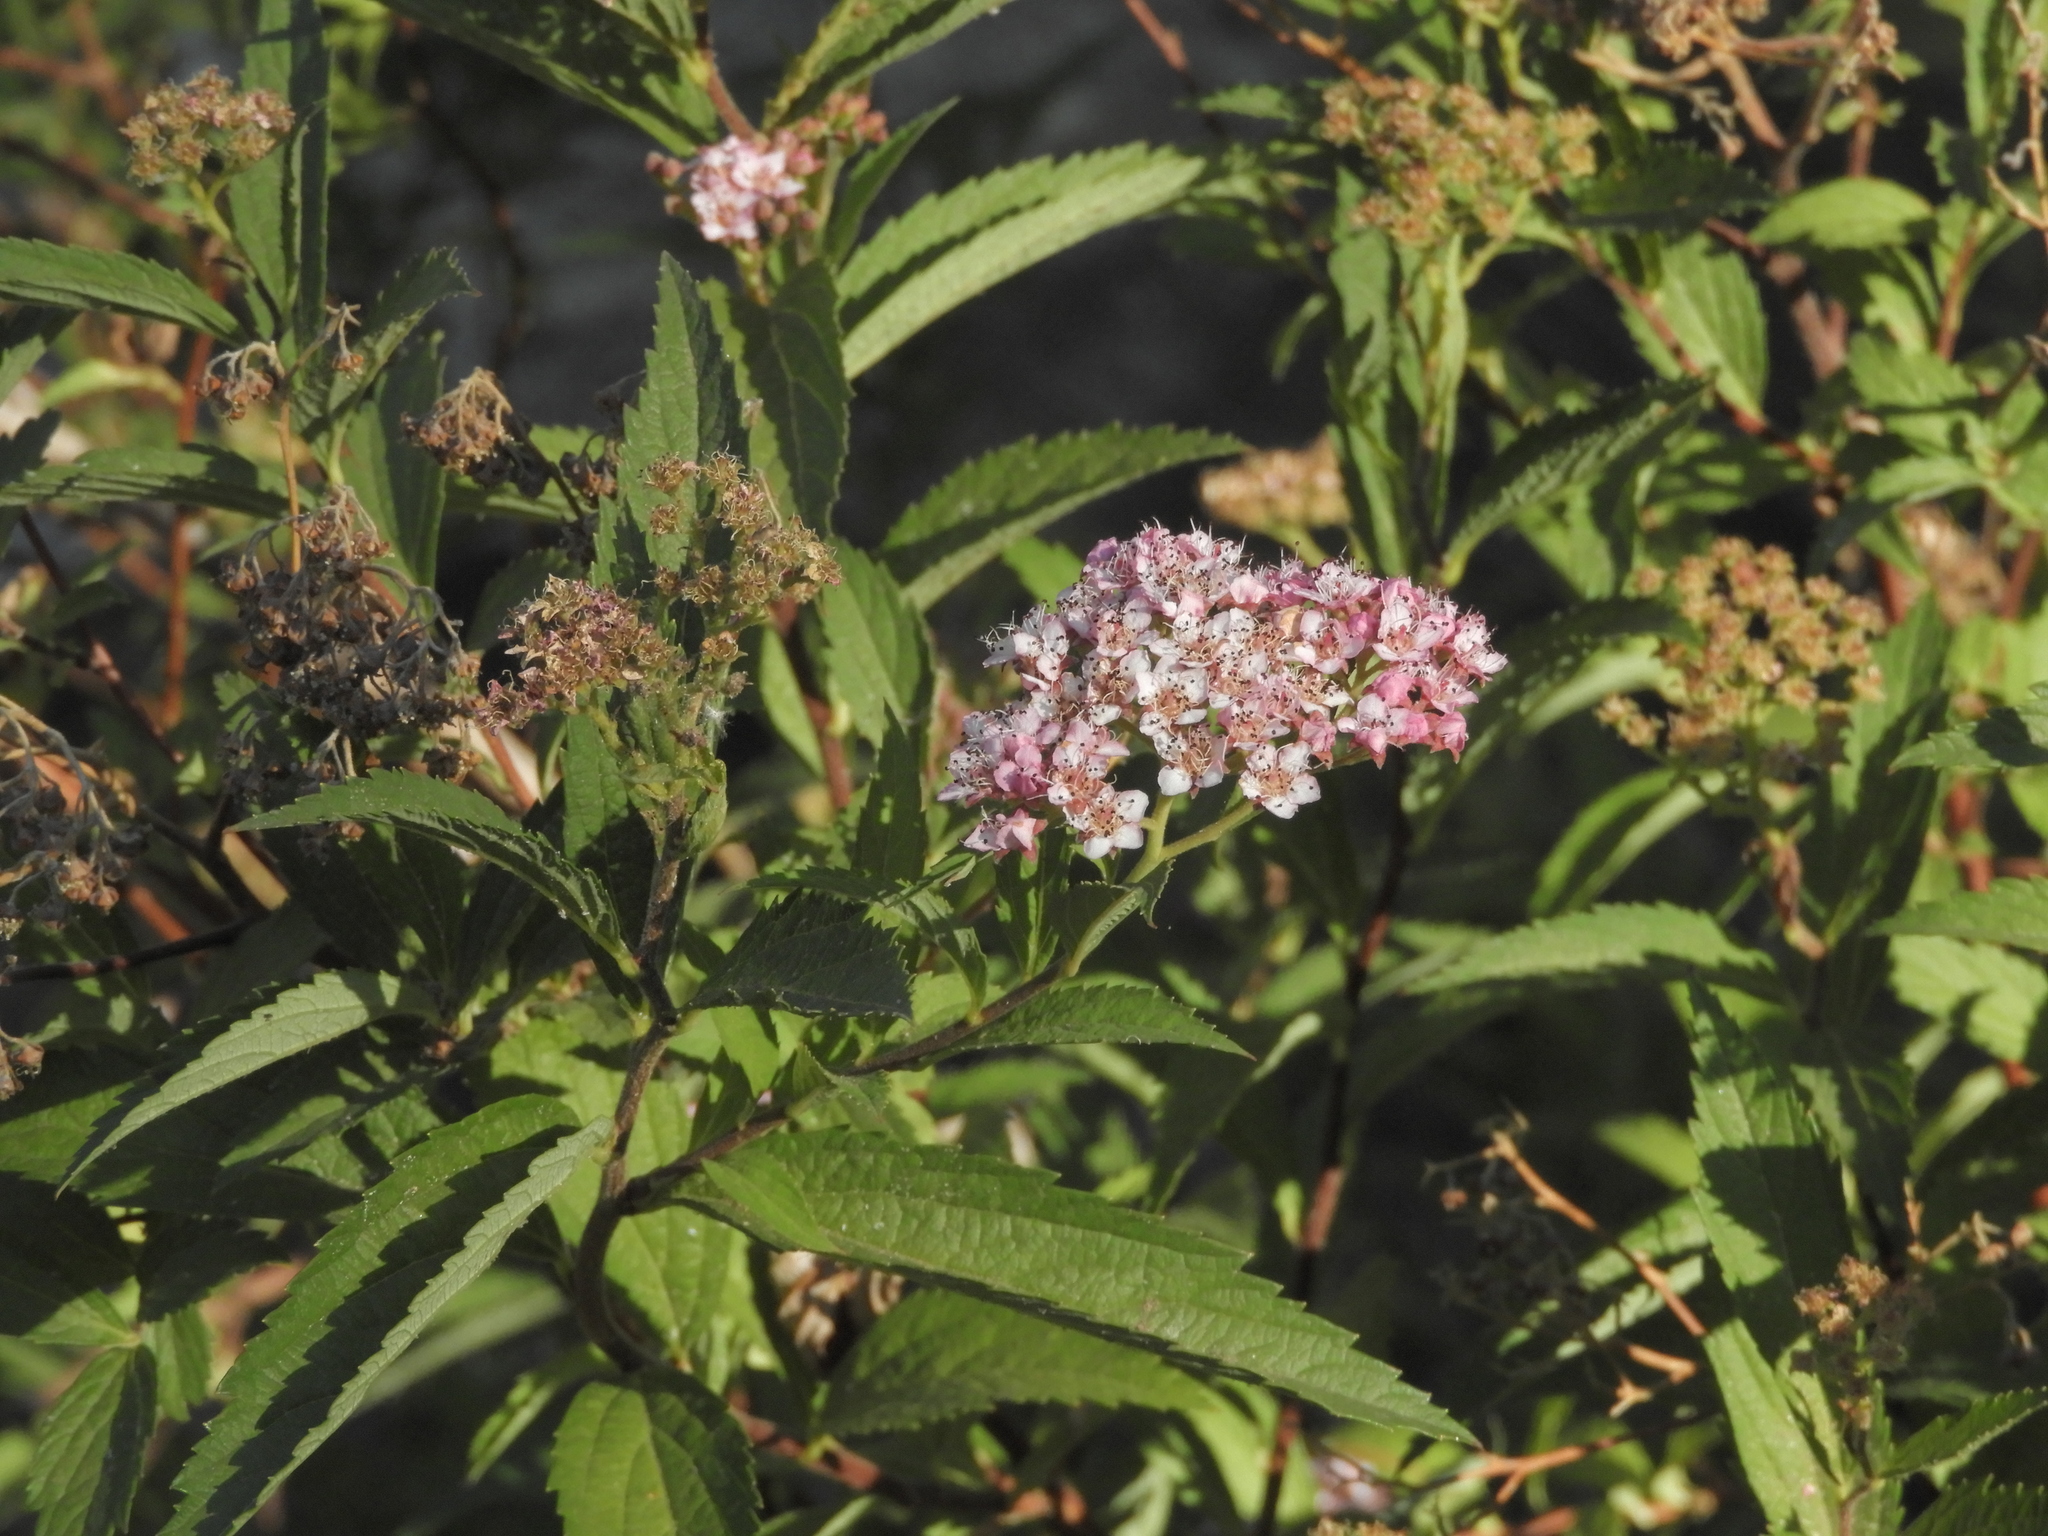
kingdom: Plantae
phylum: Tracheophyta
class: Magnoliopsida
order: Rosales
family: Rosaceae
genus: Spiraea
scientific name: Spiraea japonica
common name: Japanese spiraea
